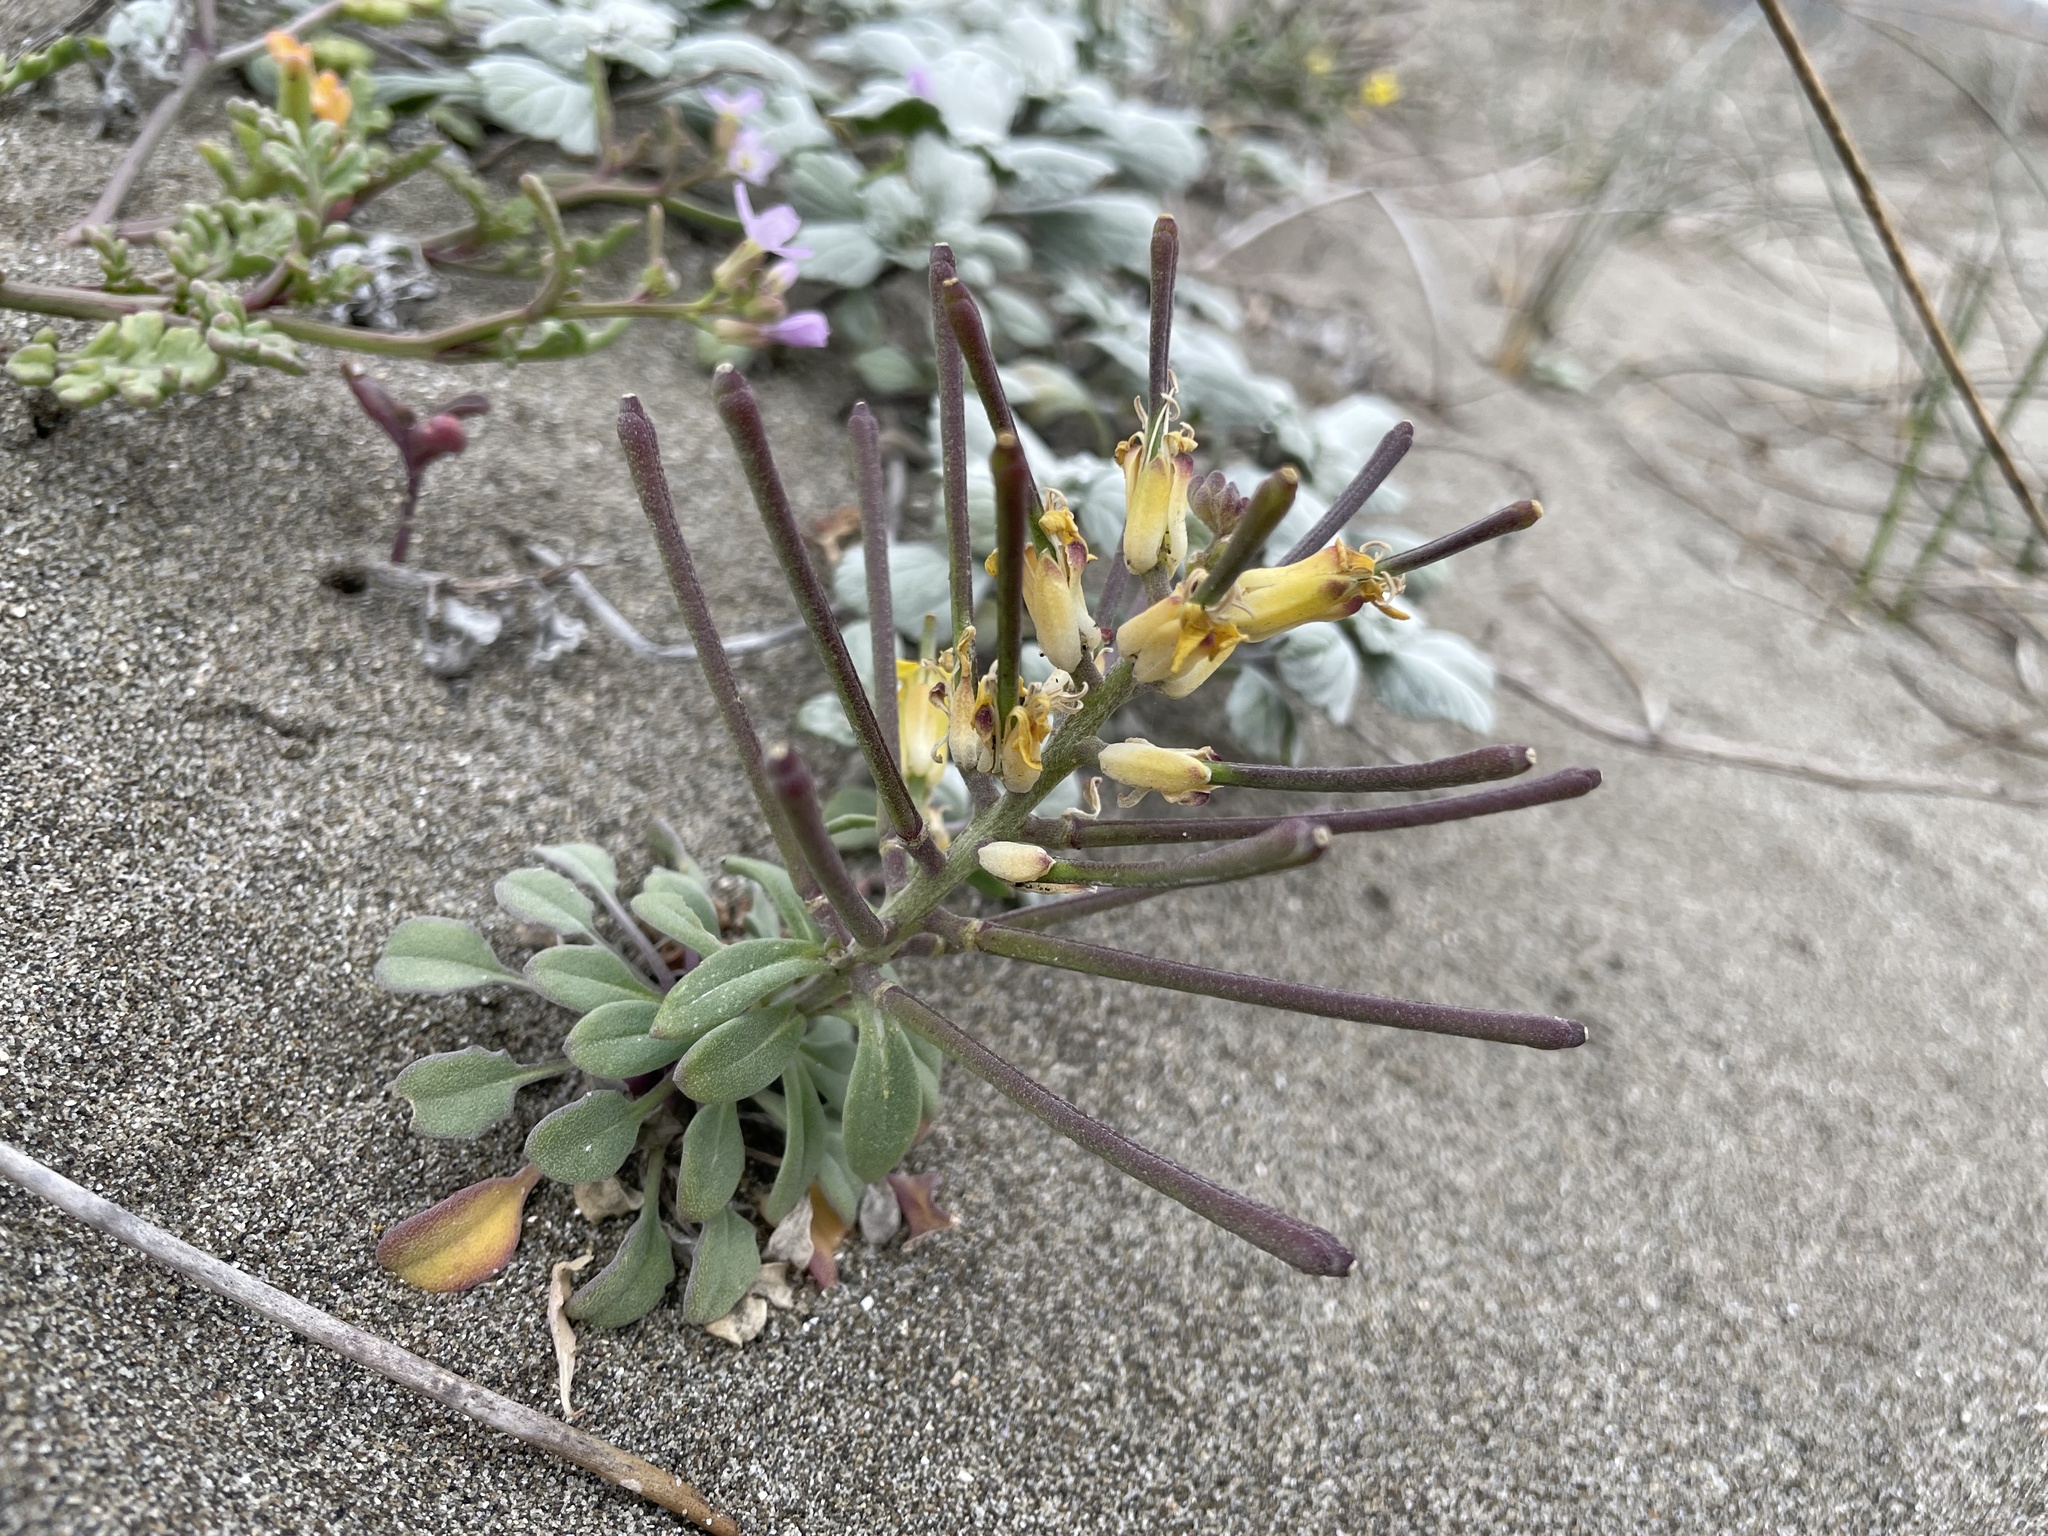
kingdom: Plantae
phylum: Tracheophyta
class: Magnoliopsida
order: Brassicales
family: Brassicaceae
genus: Erysimum
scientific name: Erysimum menziesii
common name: Menzies's wallflower
